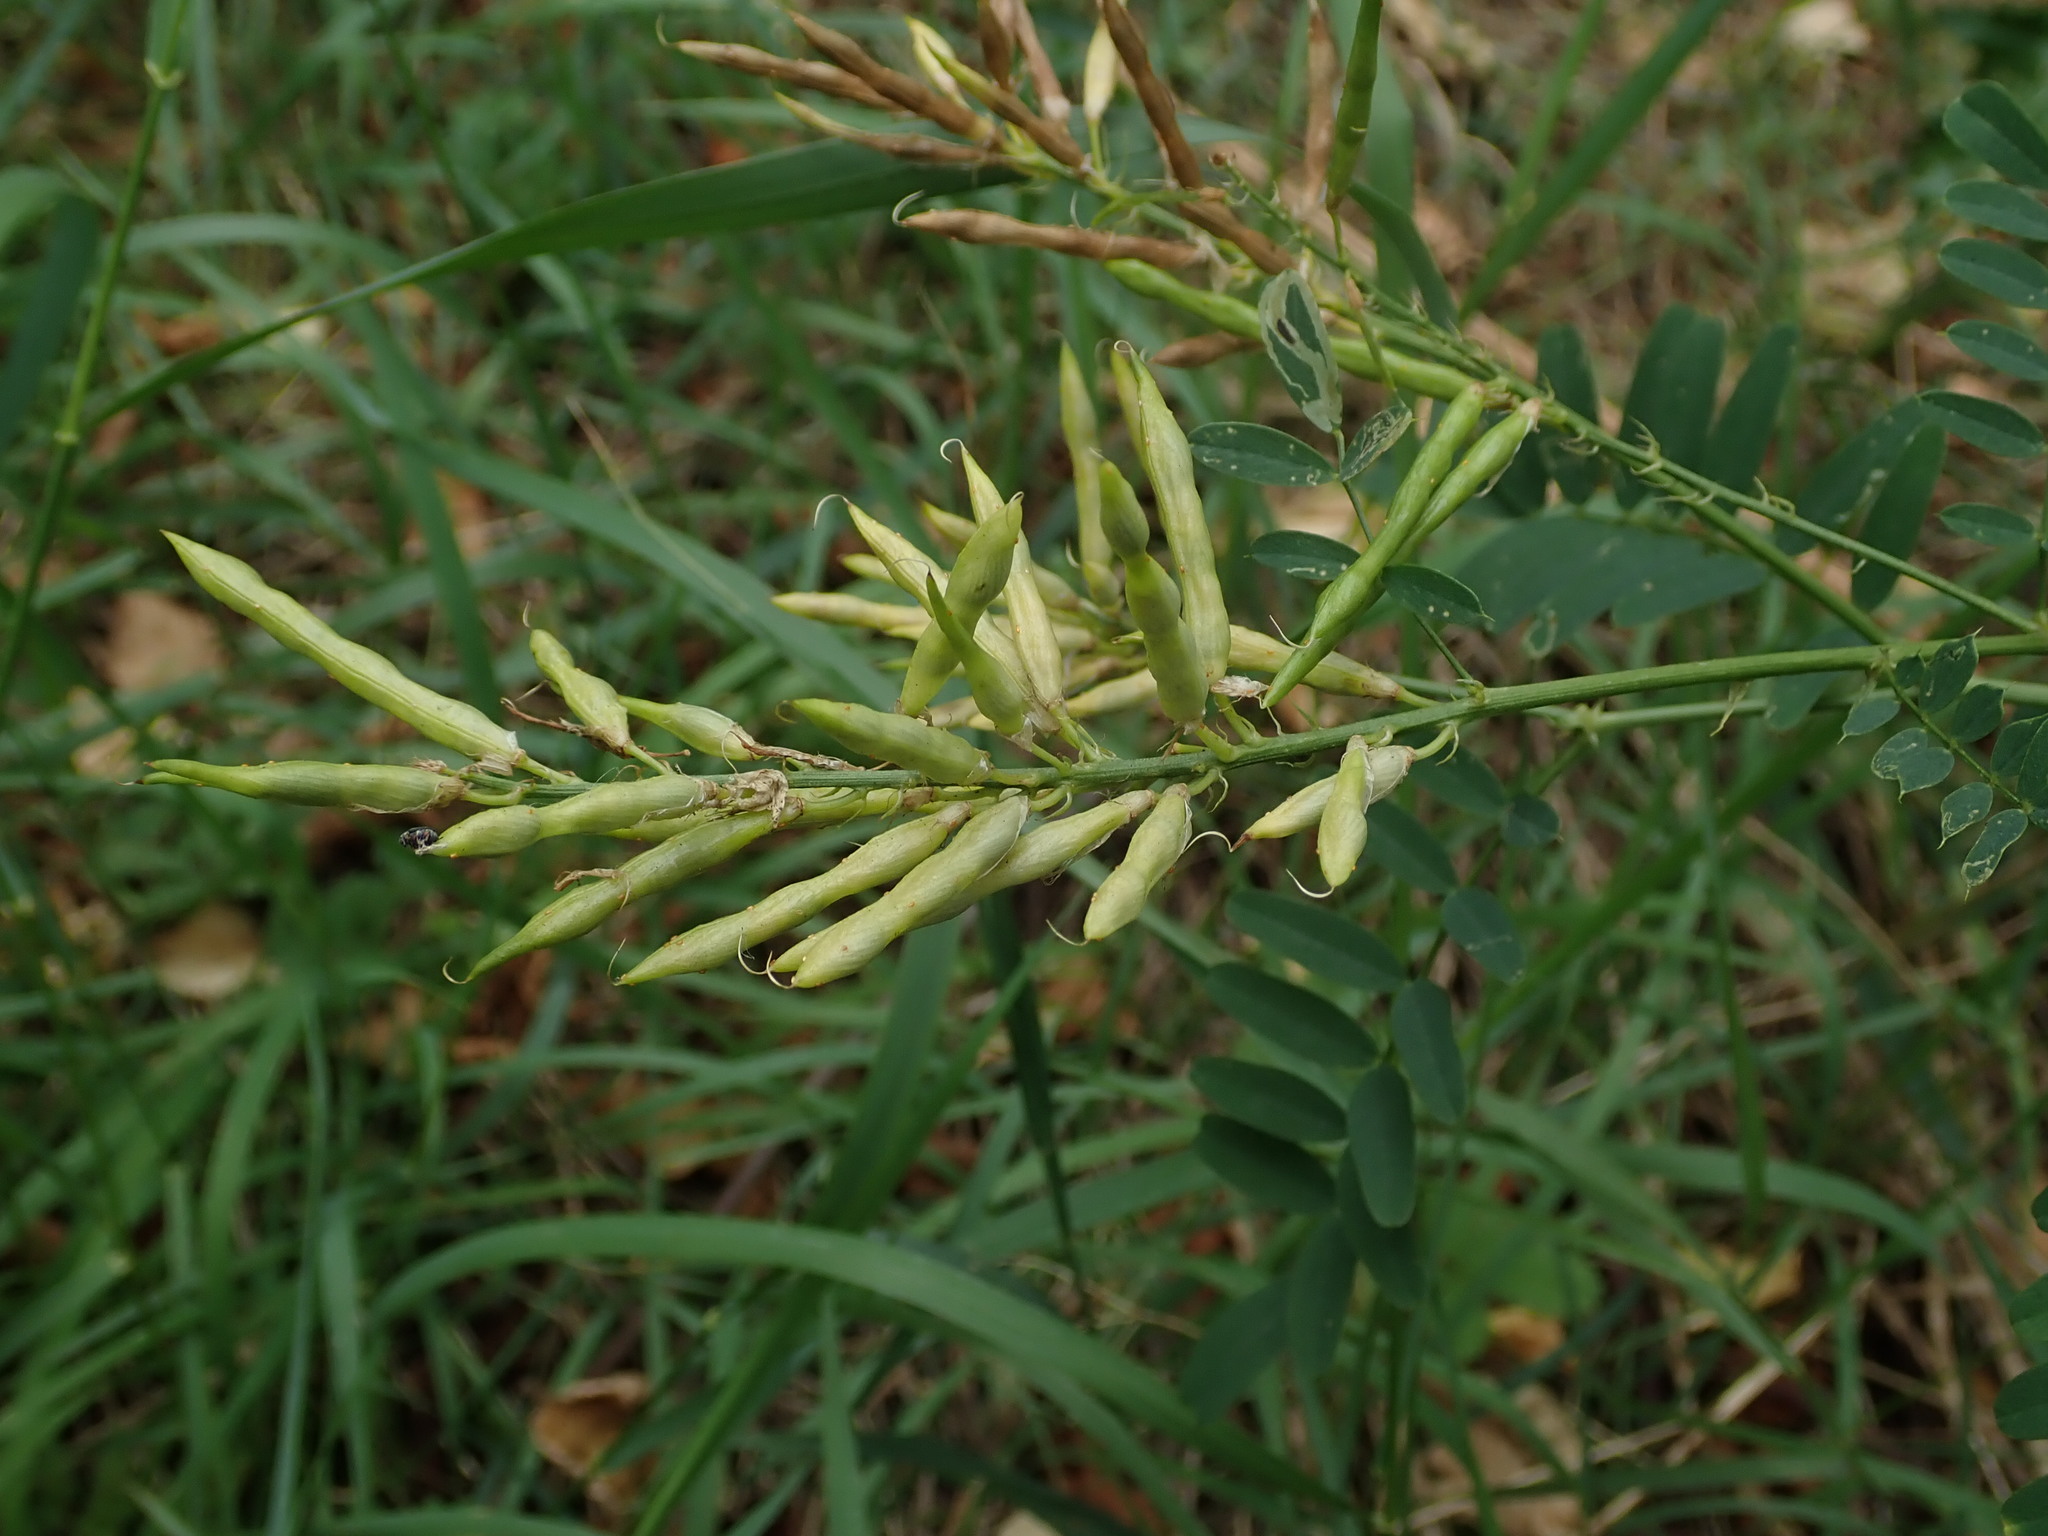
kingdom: Plantae
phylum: Tracheophyta
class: Magnoliopsida
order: Fabales
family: Fabaceae
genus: Galega
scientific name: Galega officinalis
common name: Goat's-rue
